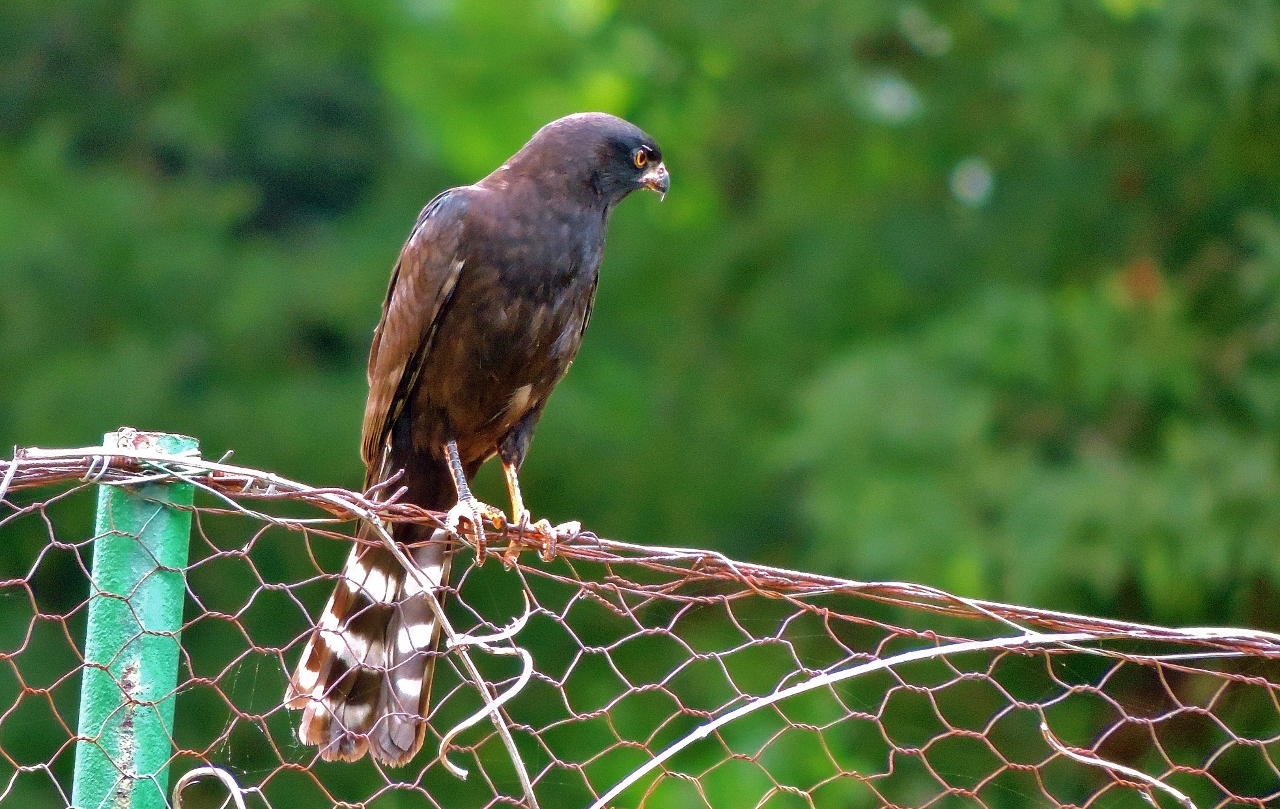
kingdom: Animalia
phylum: Chordata
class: Aves
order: Accipitriformes
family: Accipitridae
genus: Micronisus
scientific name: Micronisus gabar
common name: Gabar goshawk
